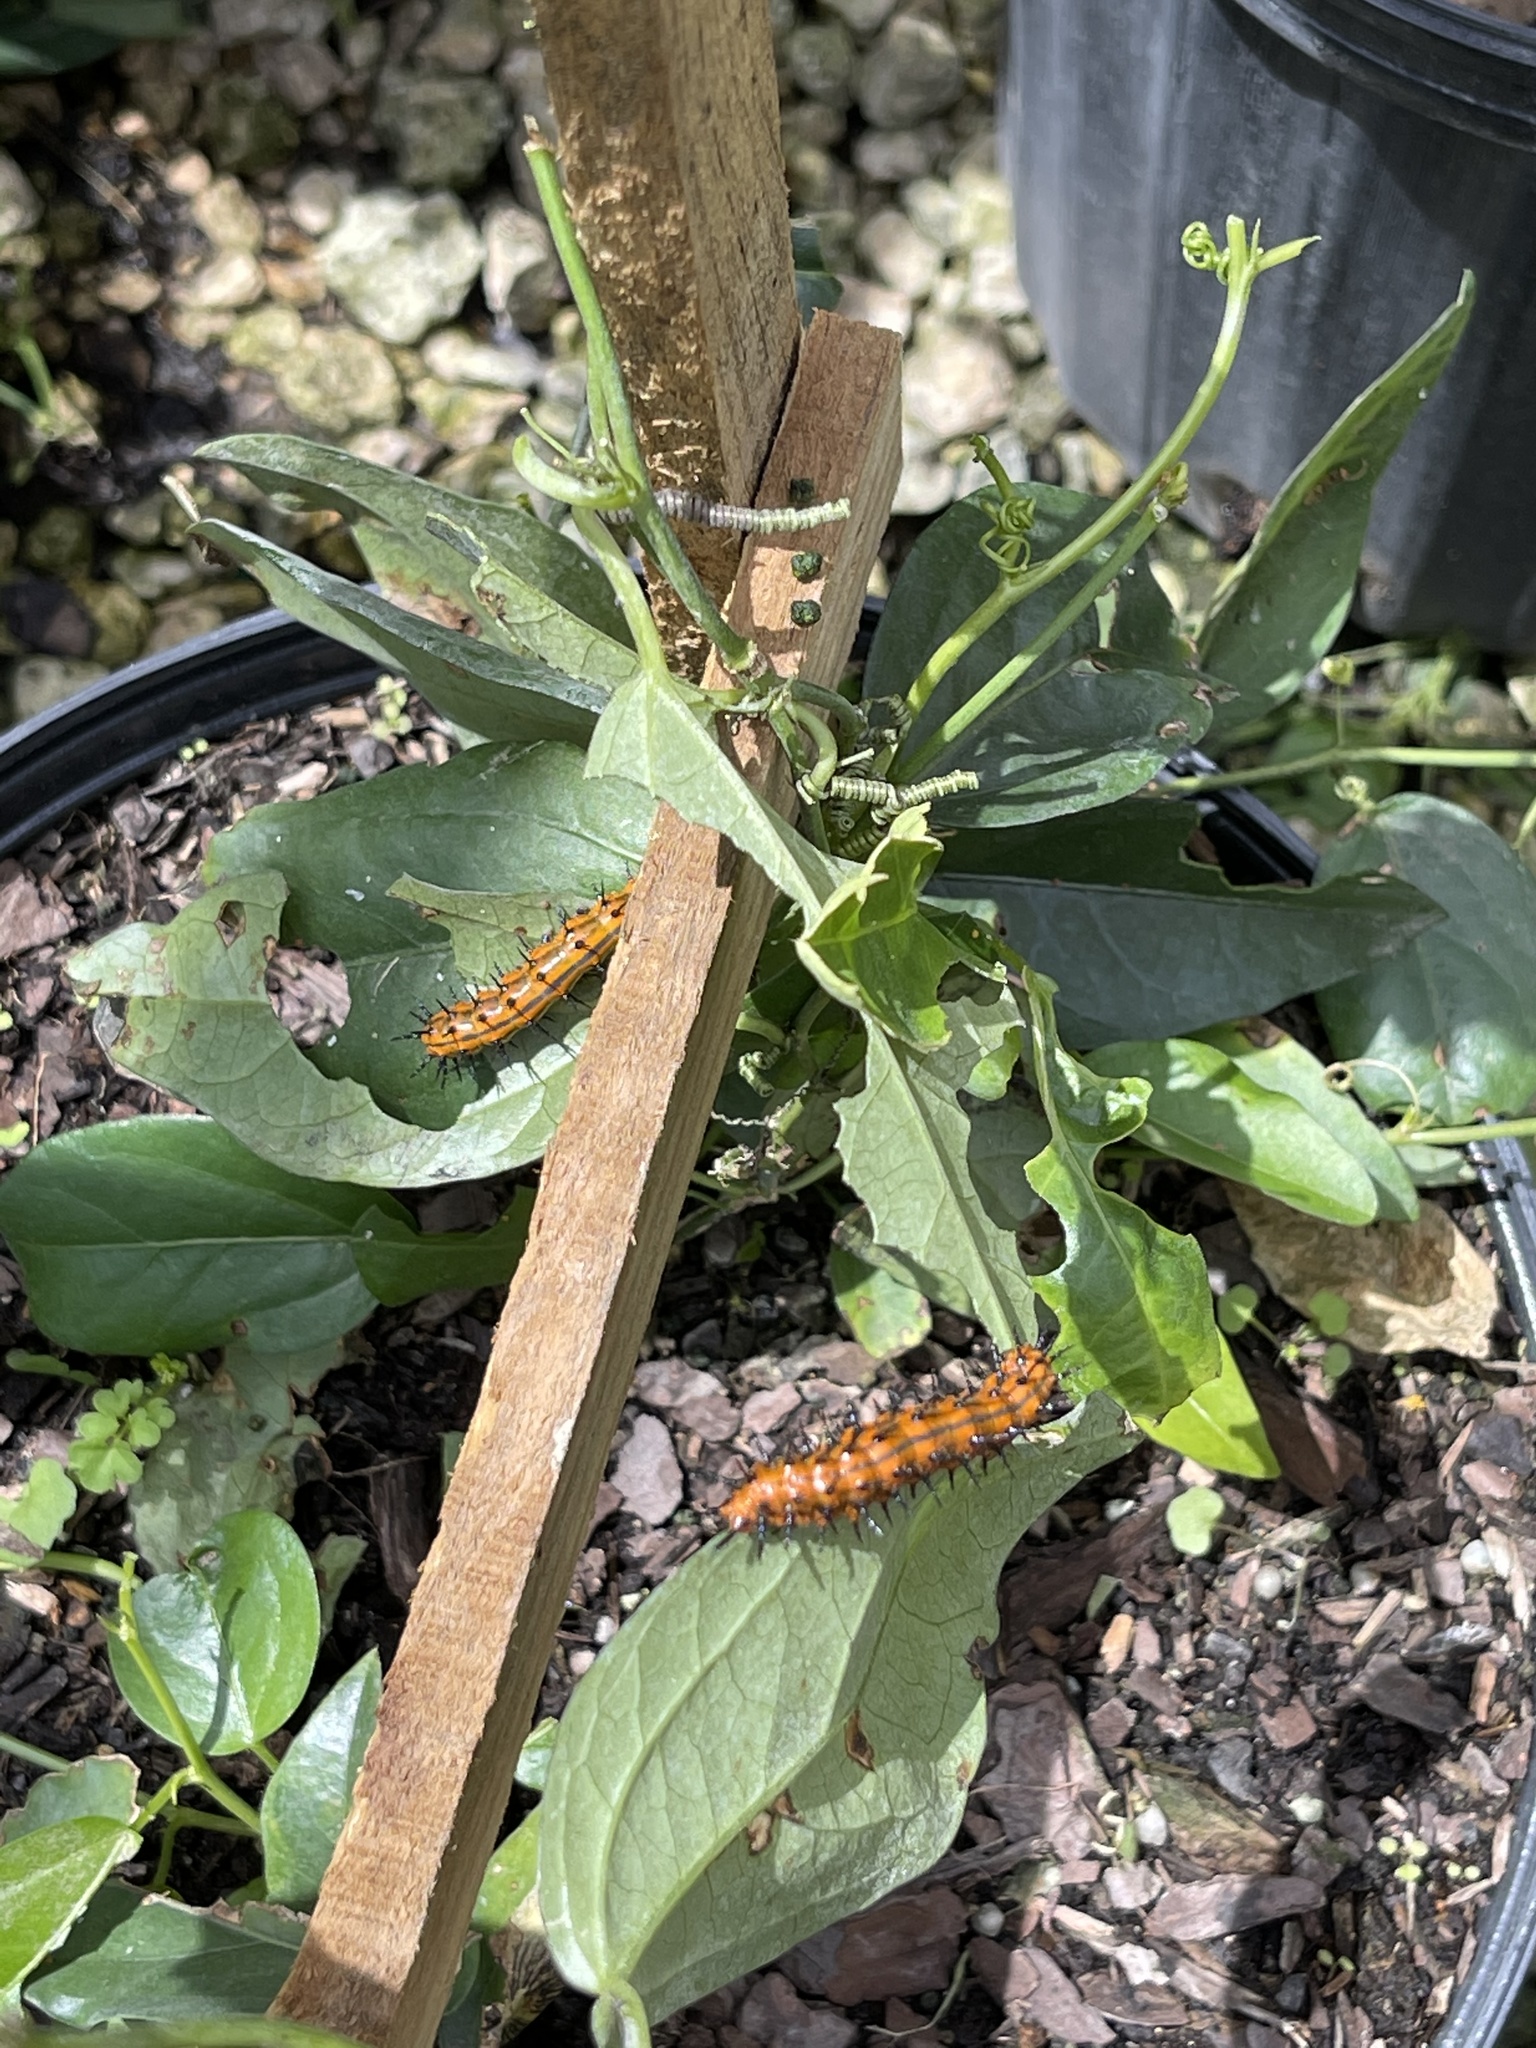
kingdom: Animalia
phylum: Arthropoda
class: Insecta
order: Lepidoptera
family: Nymphalidae
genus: Dione
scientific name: Dione vanillae
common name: Gulf fritillary
